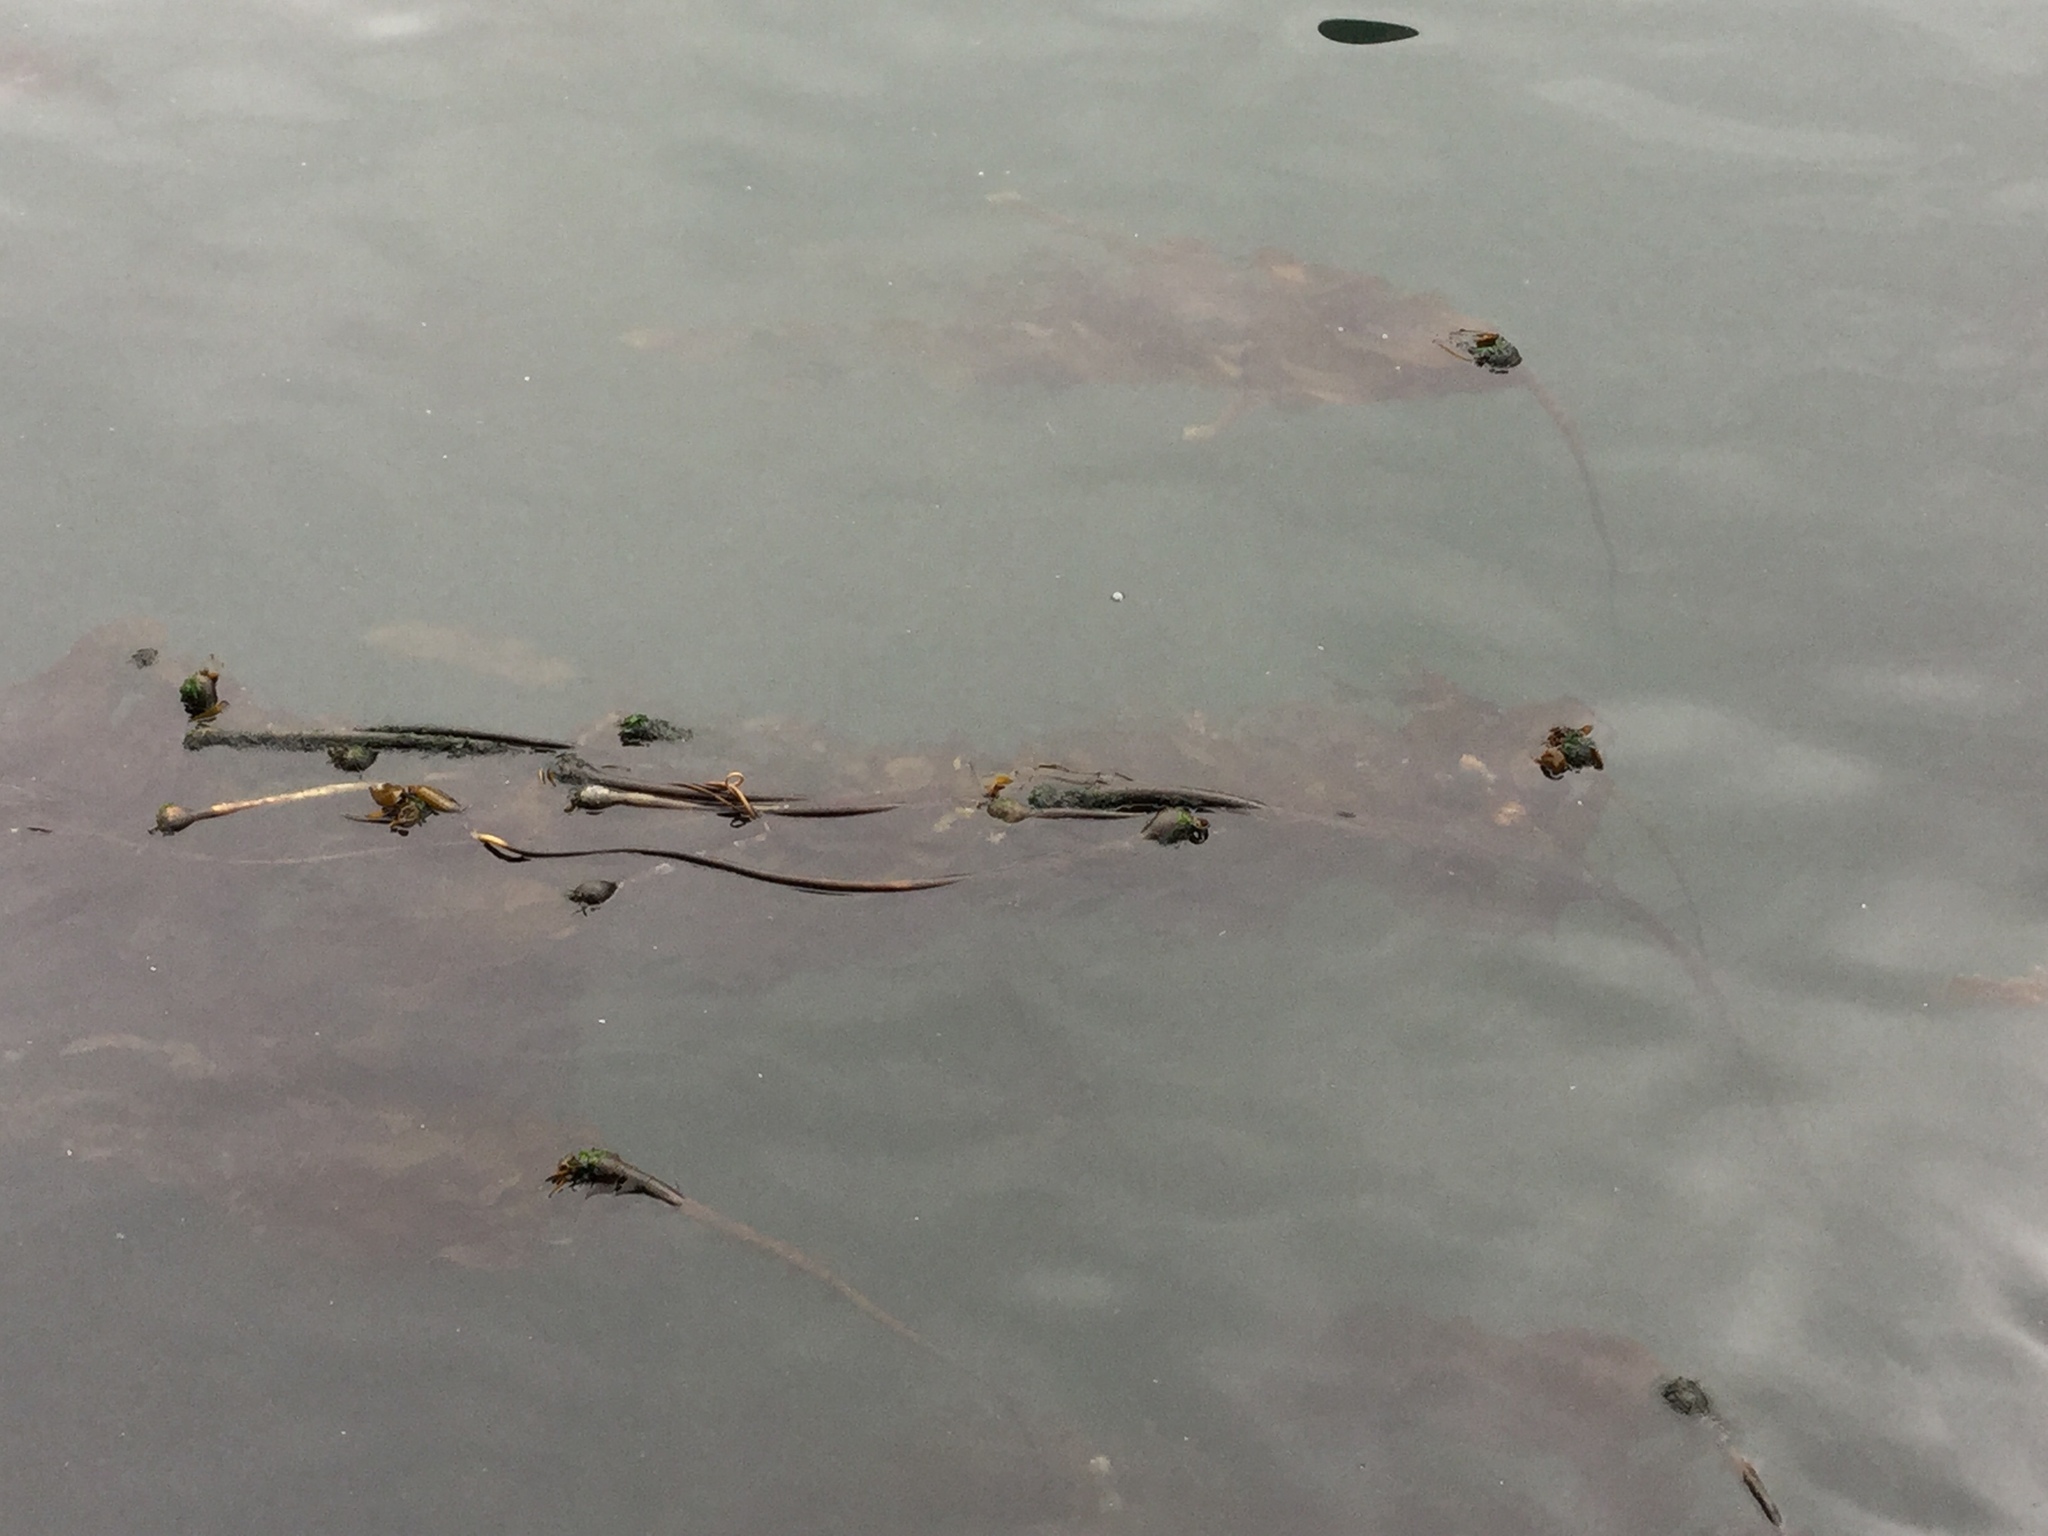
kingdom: Chromista
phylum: Ochrophyta
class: Phaeophyceae
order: Laminariales
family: Laminariaceae
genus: Nereocystis
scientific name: Nereocystis luetkeana
